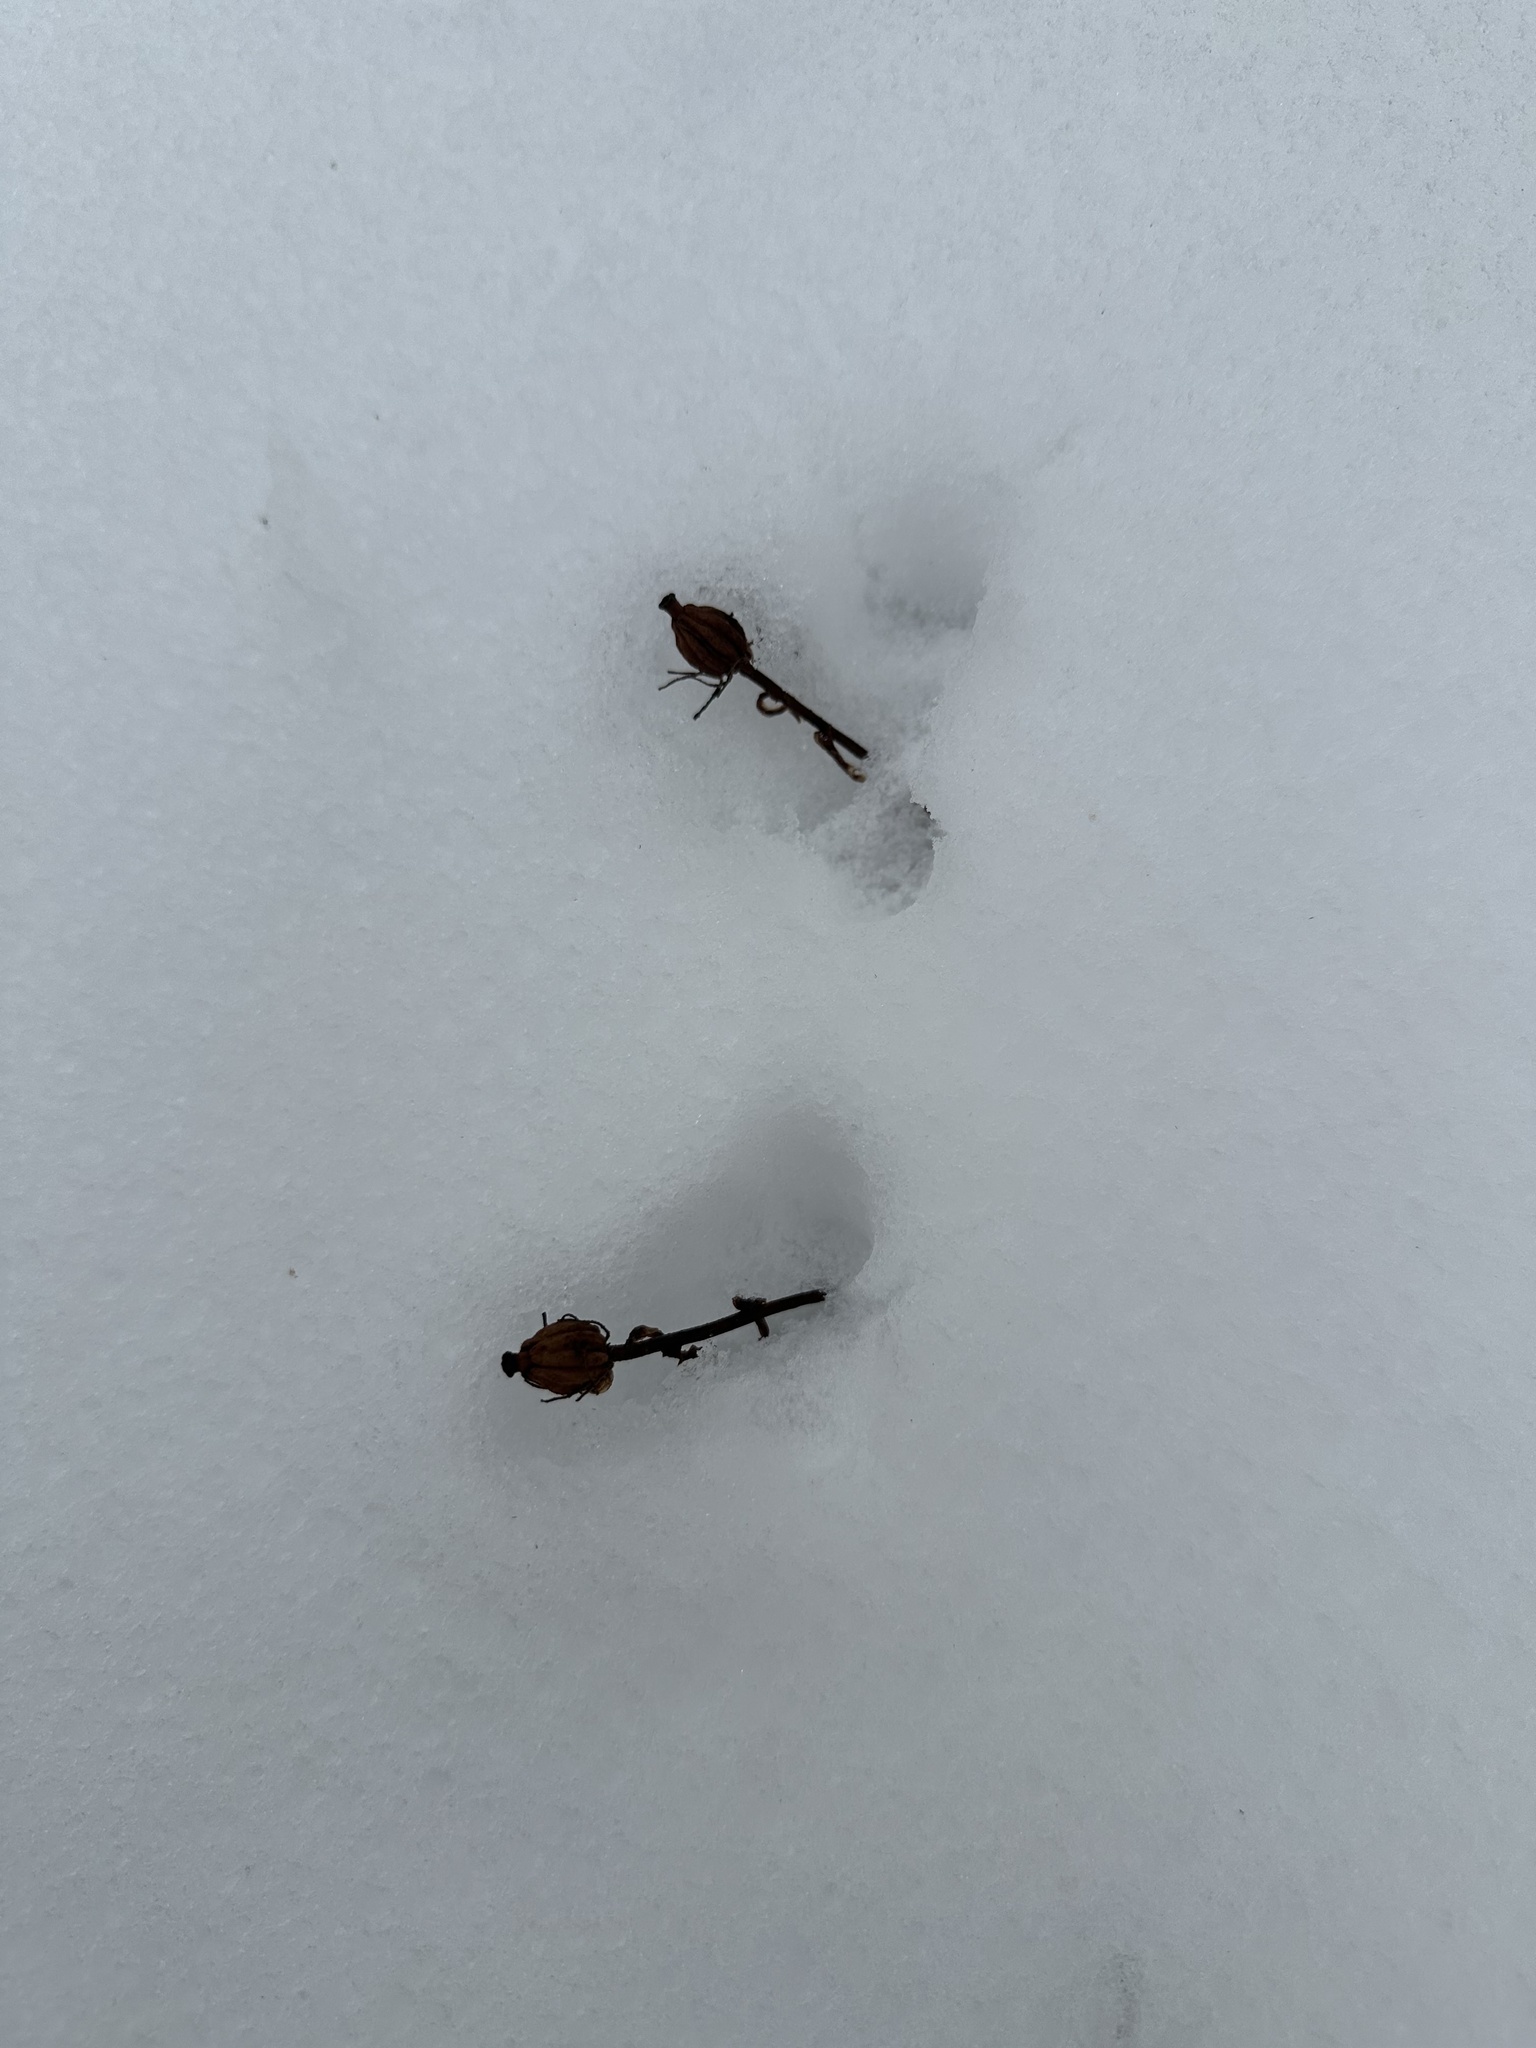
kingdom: Plantae
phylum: Tracheophyta
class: Magnoliopsida
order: Ericales
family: Ericaceae
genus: Monotropa
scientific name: Monotropa uniflora
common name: Convulsion root
